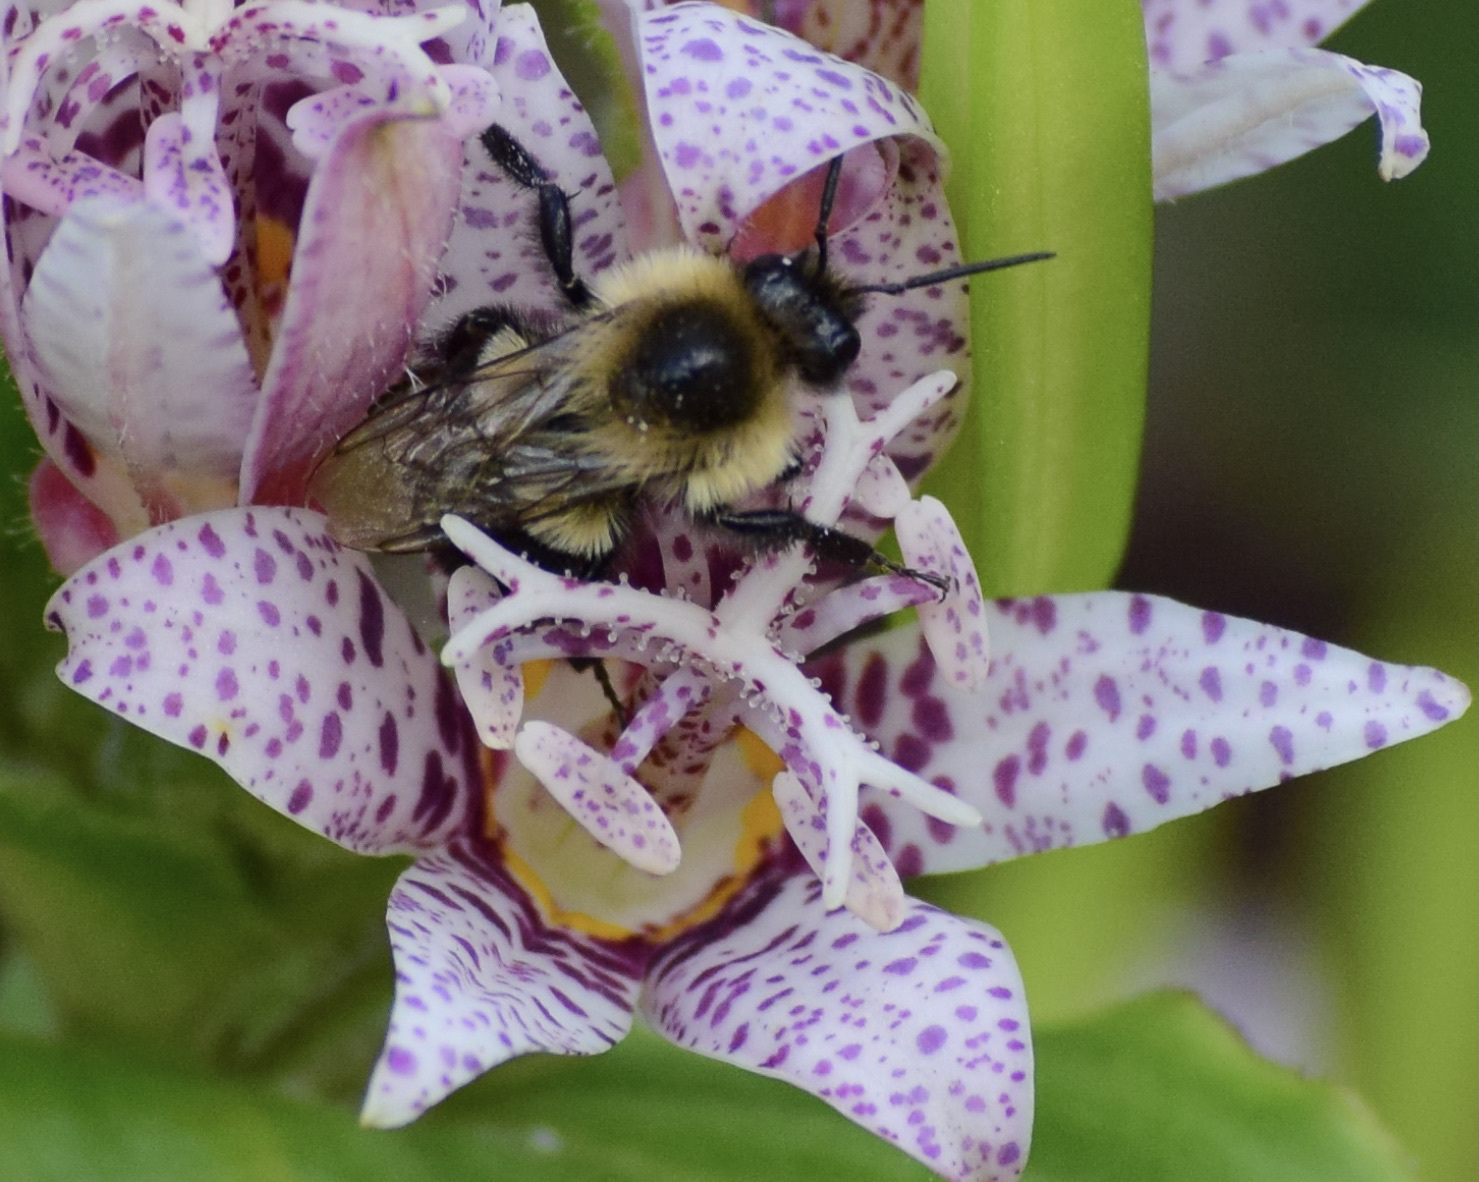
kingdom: Animalia
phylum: Arthropoda
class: Insecta
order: Hymenoptera
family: Apidae
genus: Bombus
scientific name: Bombus impatiens
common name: Common eastern bumble bee
